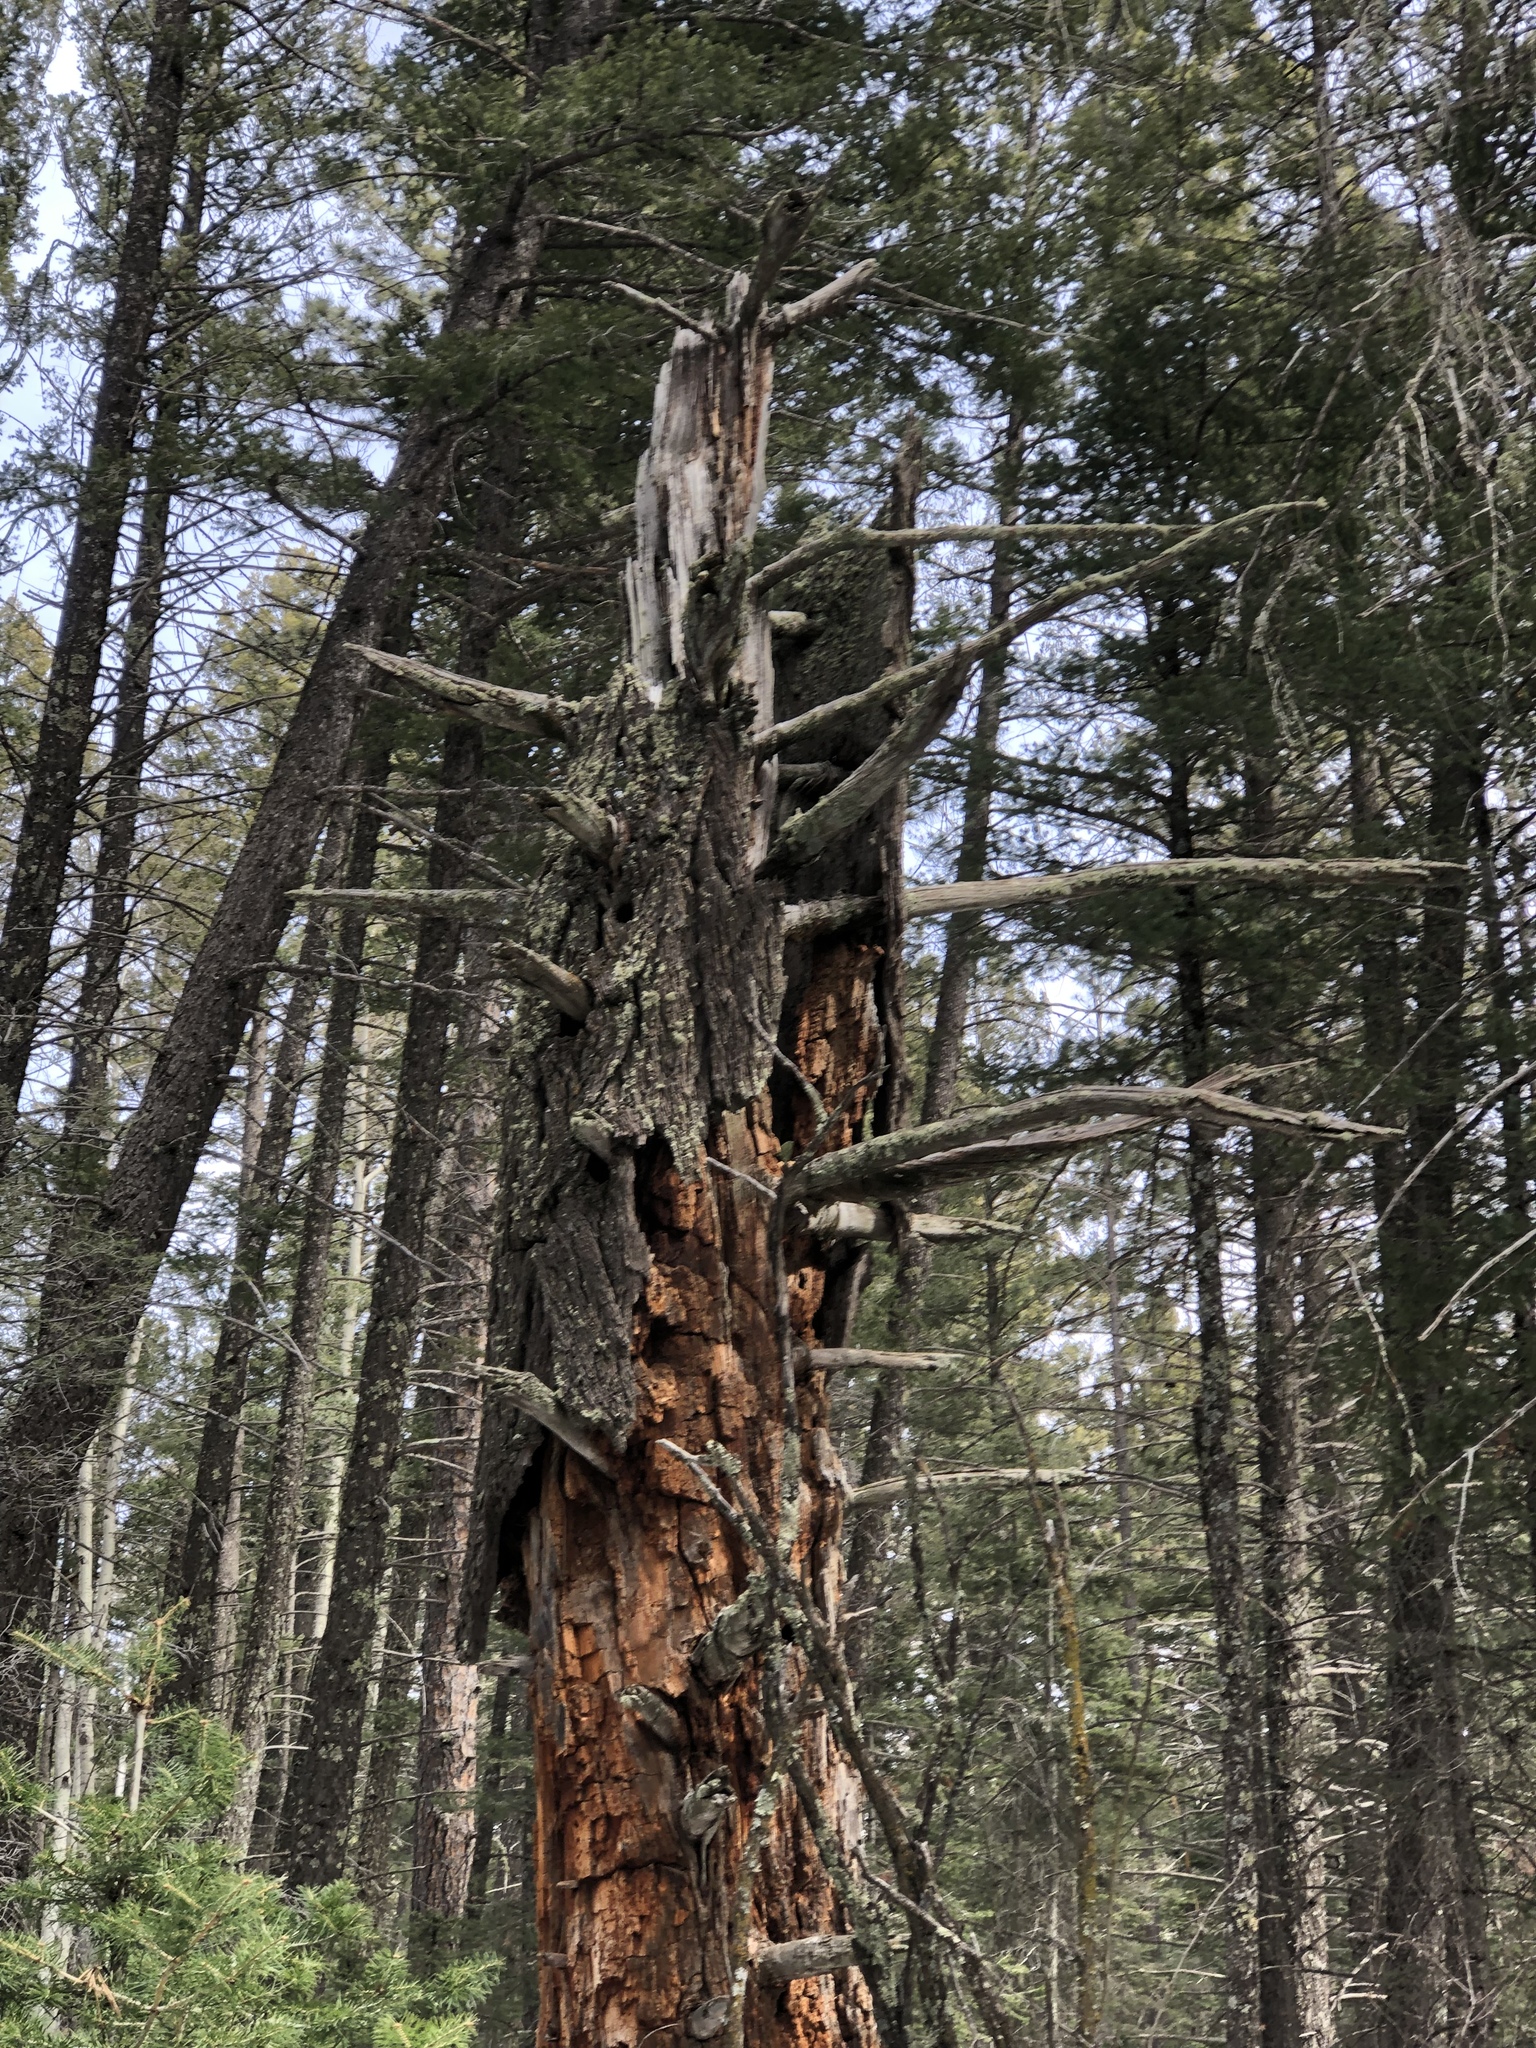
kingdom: Plantae
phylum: Tracheophyta
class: Pinopsida
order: Pinales
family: Pinaceae
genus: Pseudotsuga
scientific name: Pseudotsuga menziesii
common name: Douglas fir
